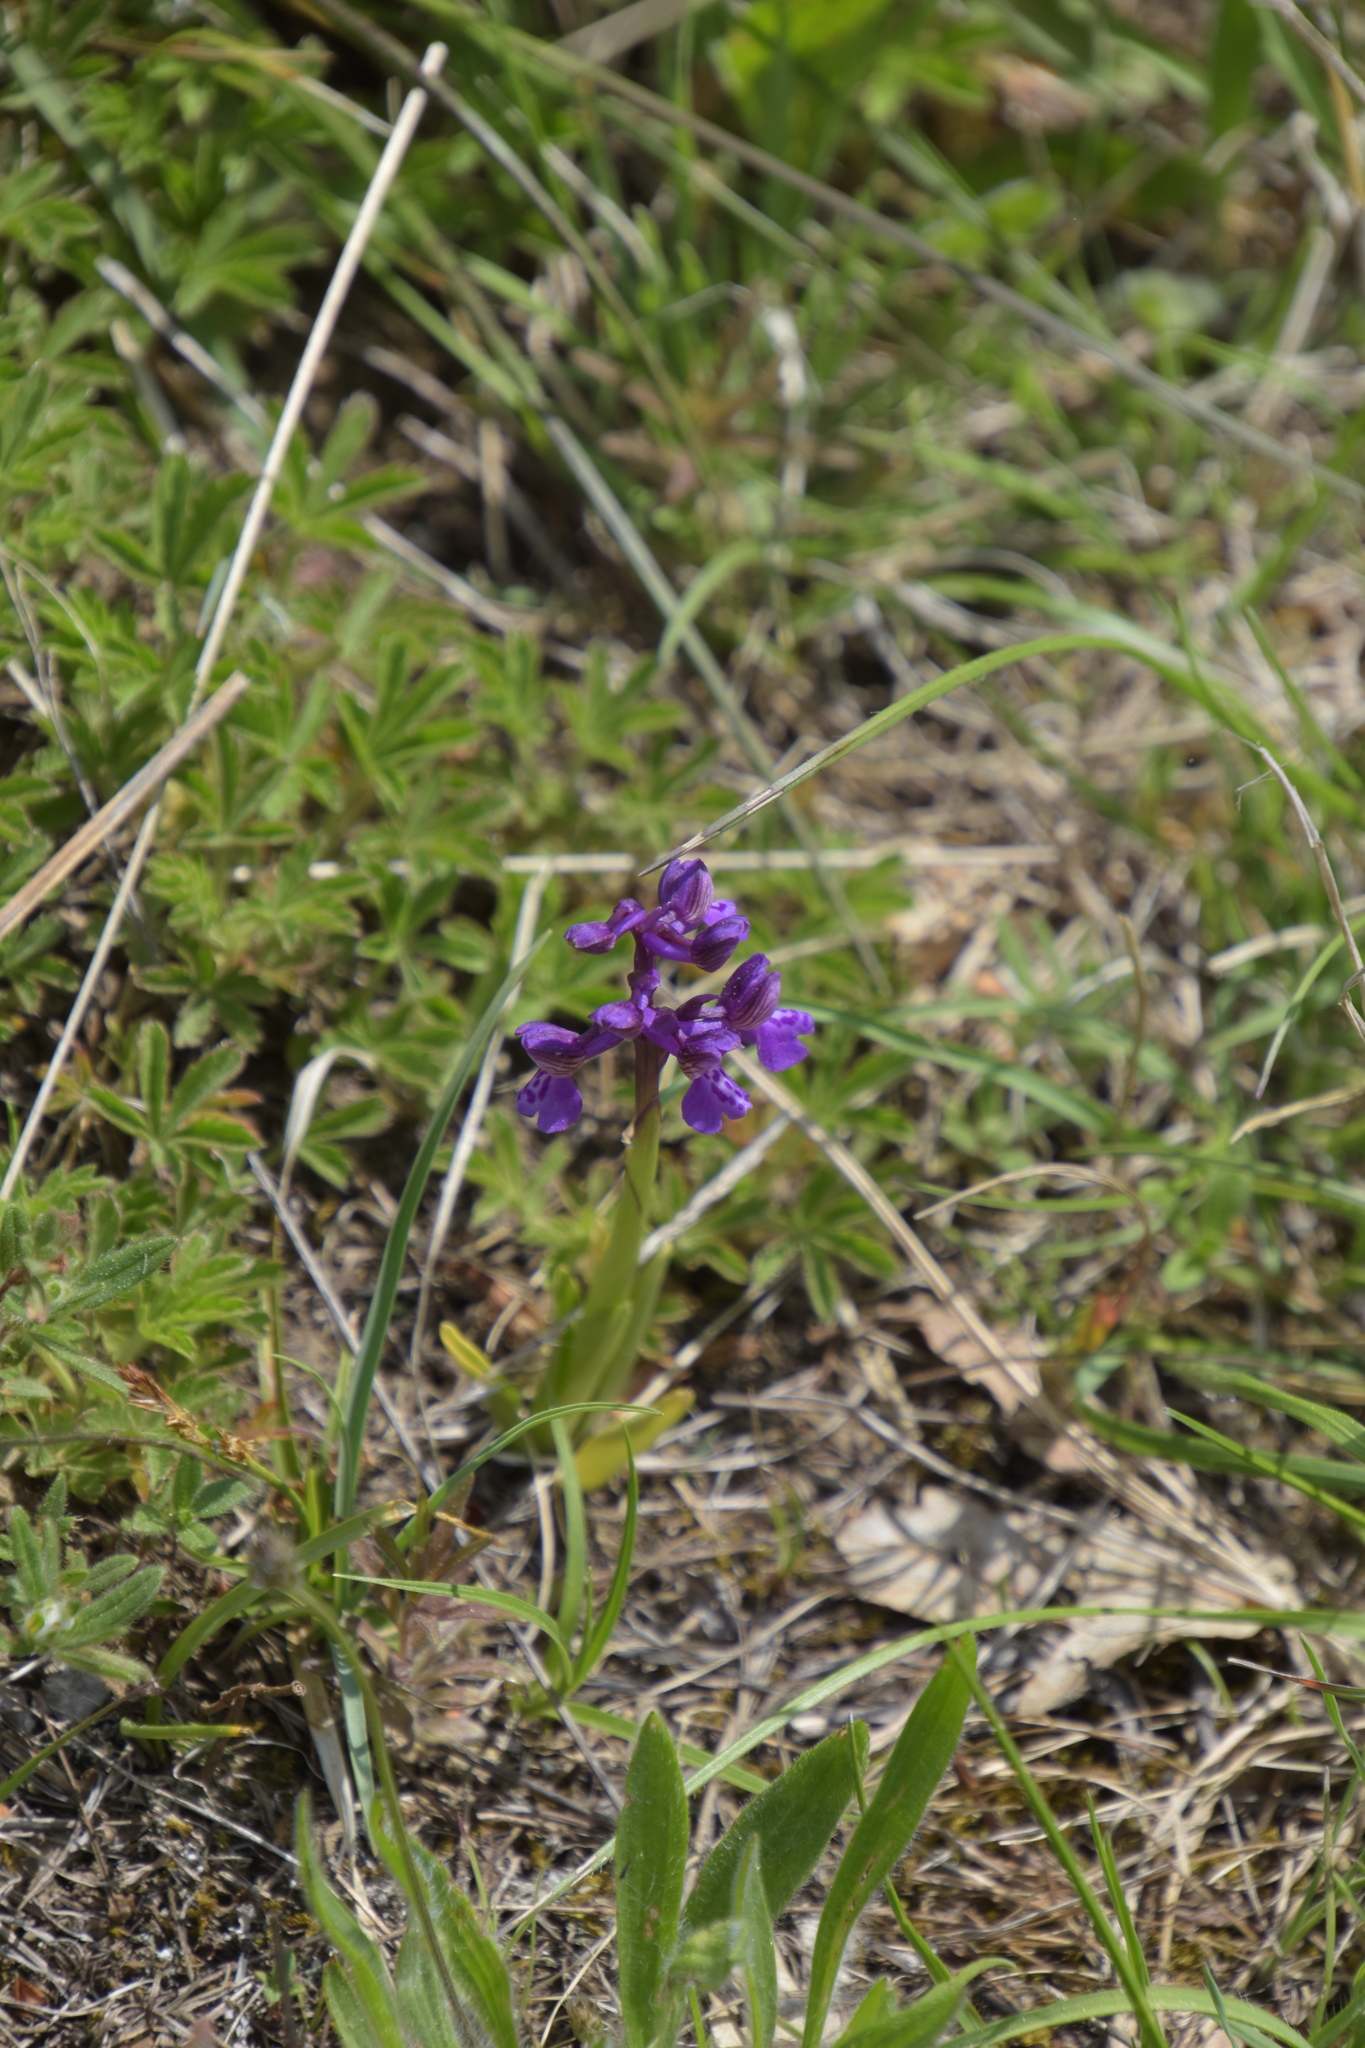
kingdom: Plantae
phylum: Tracheophyta
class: Liliopsida
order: Asparagales
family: Orchidaceae
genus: Anacamptis
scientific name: Anacamptis morio
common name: Green-winged orchid
